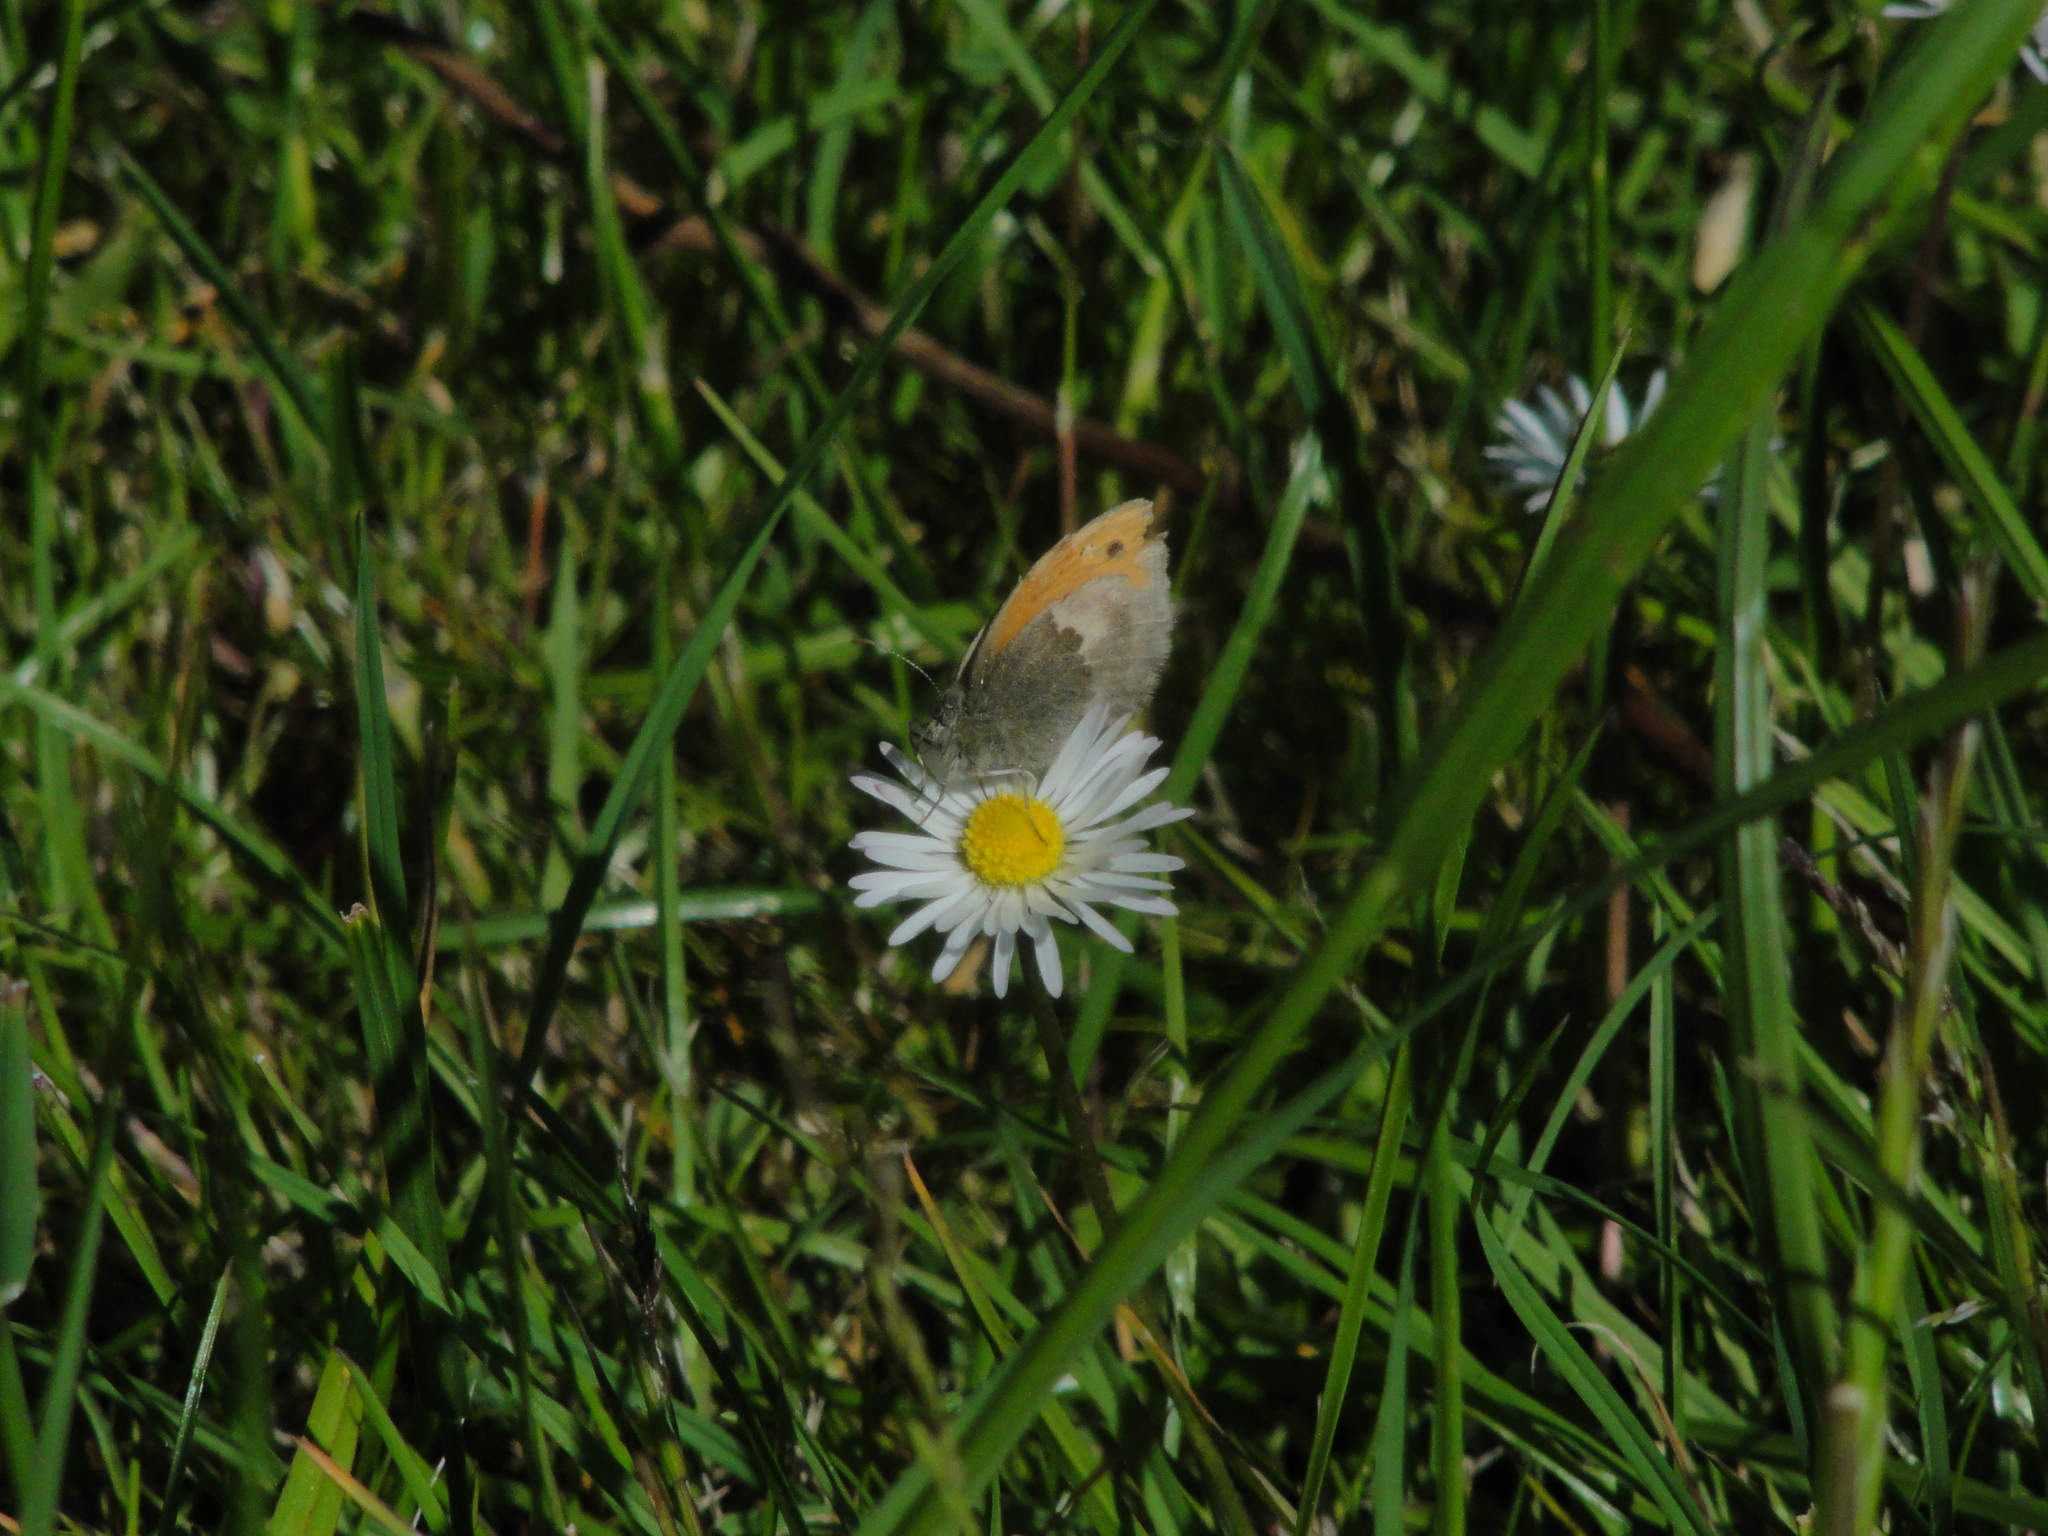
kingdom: Animalia
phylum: Arthropoda
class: Insecta
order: Lepidoptera
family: Nymphalidae
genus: Coenonympha
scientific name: Coenonympha pamphilus
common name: Small heath
